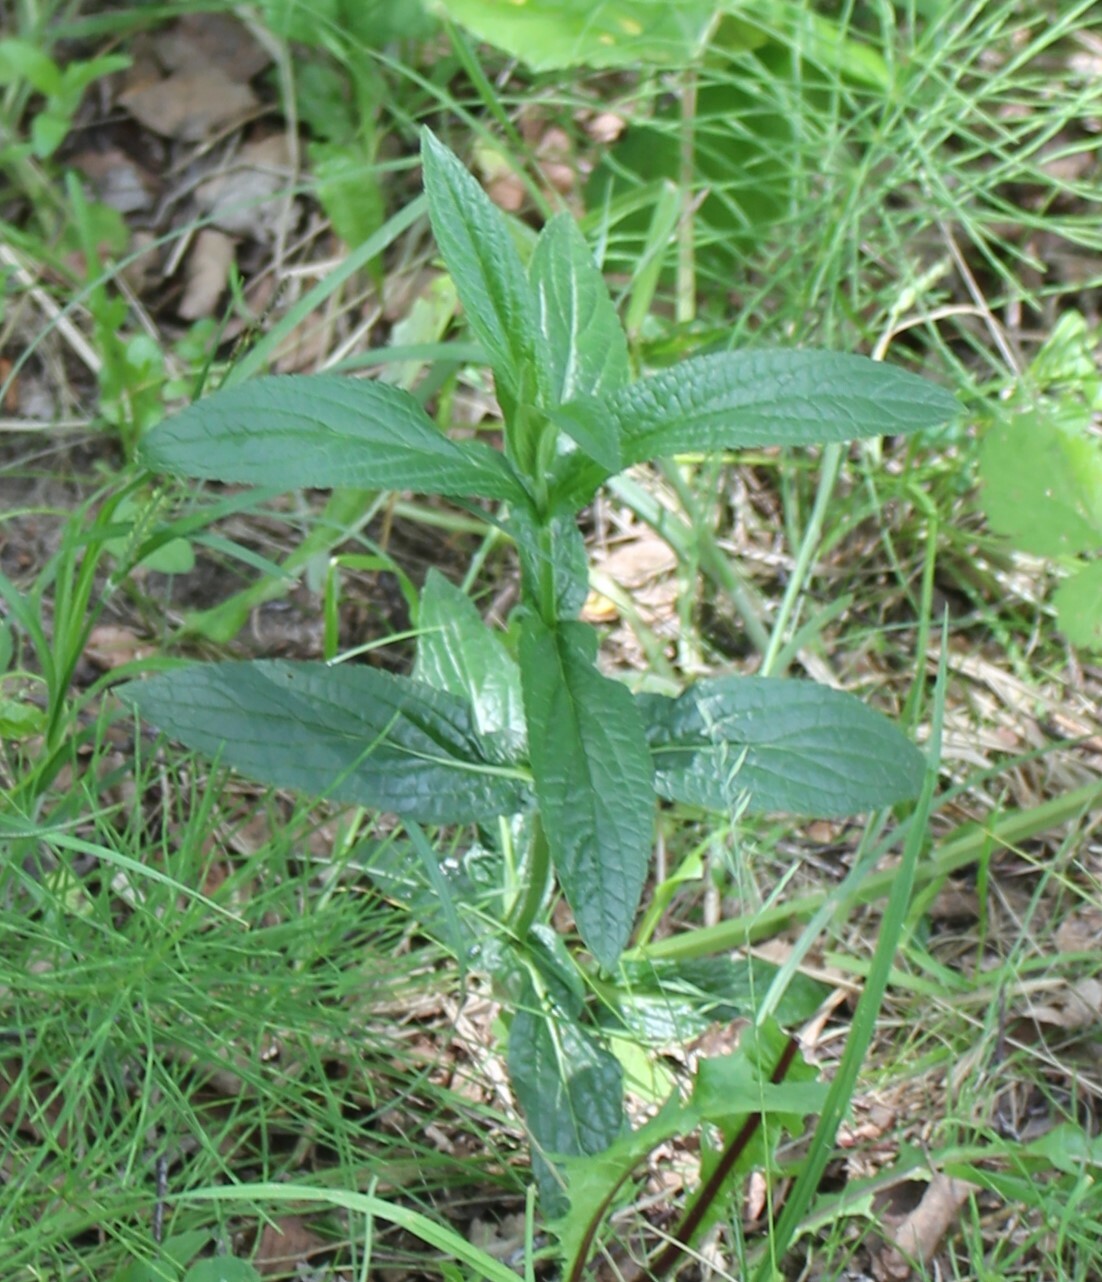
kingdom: Plantae
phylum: Tracheophyta
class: Magnoliopsida
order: Lamiales
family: Lamiaceae
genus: Stachys
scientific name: Stachys palustris
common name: Marsh woundwort
